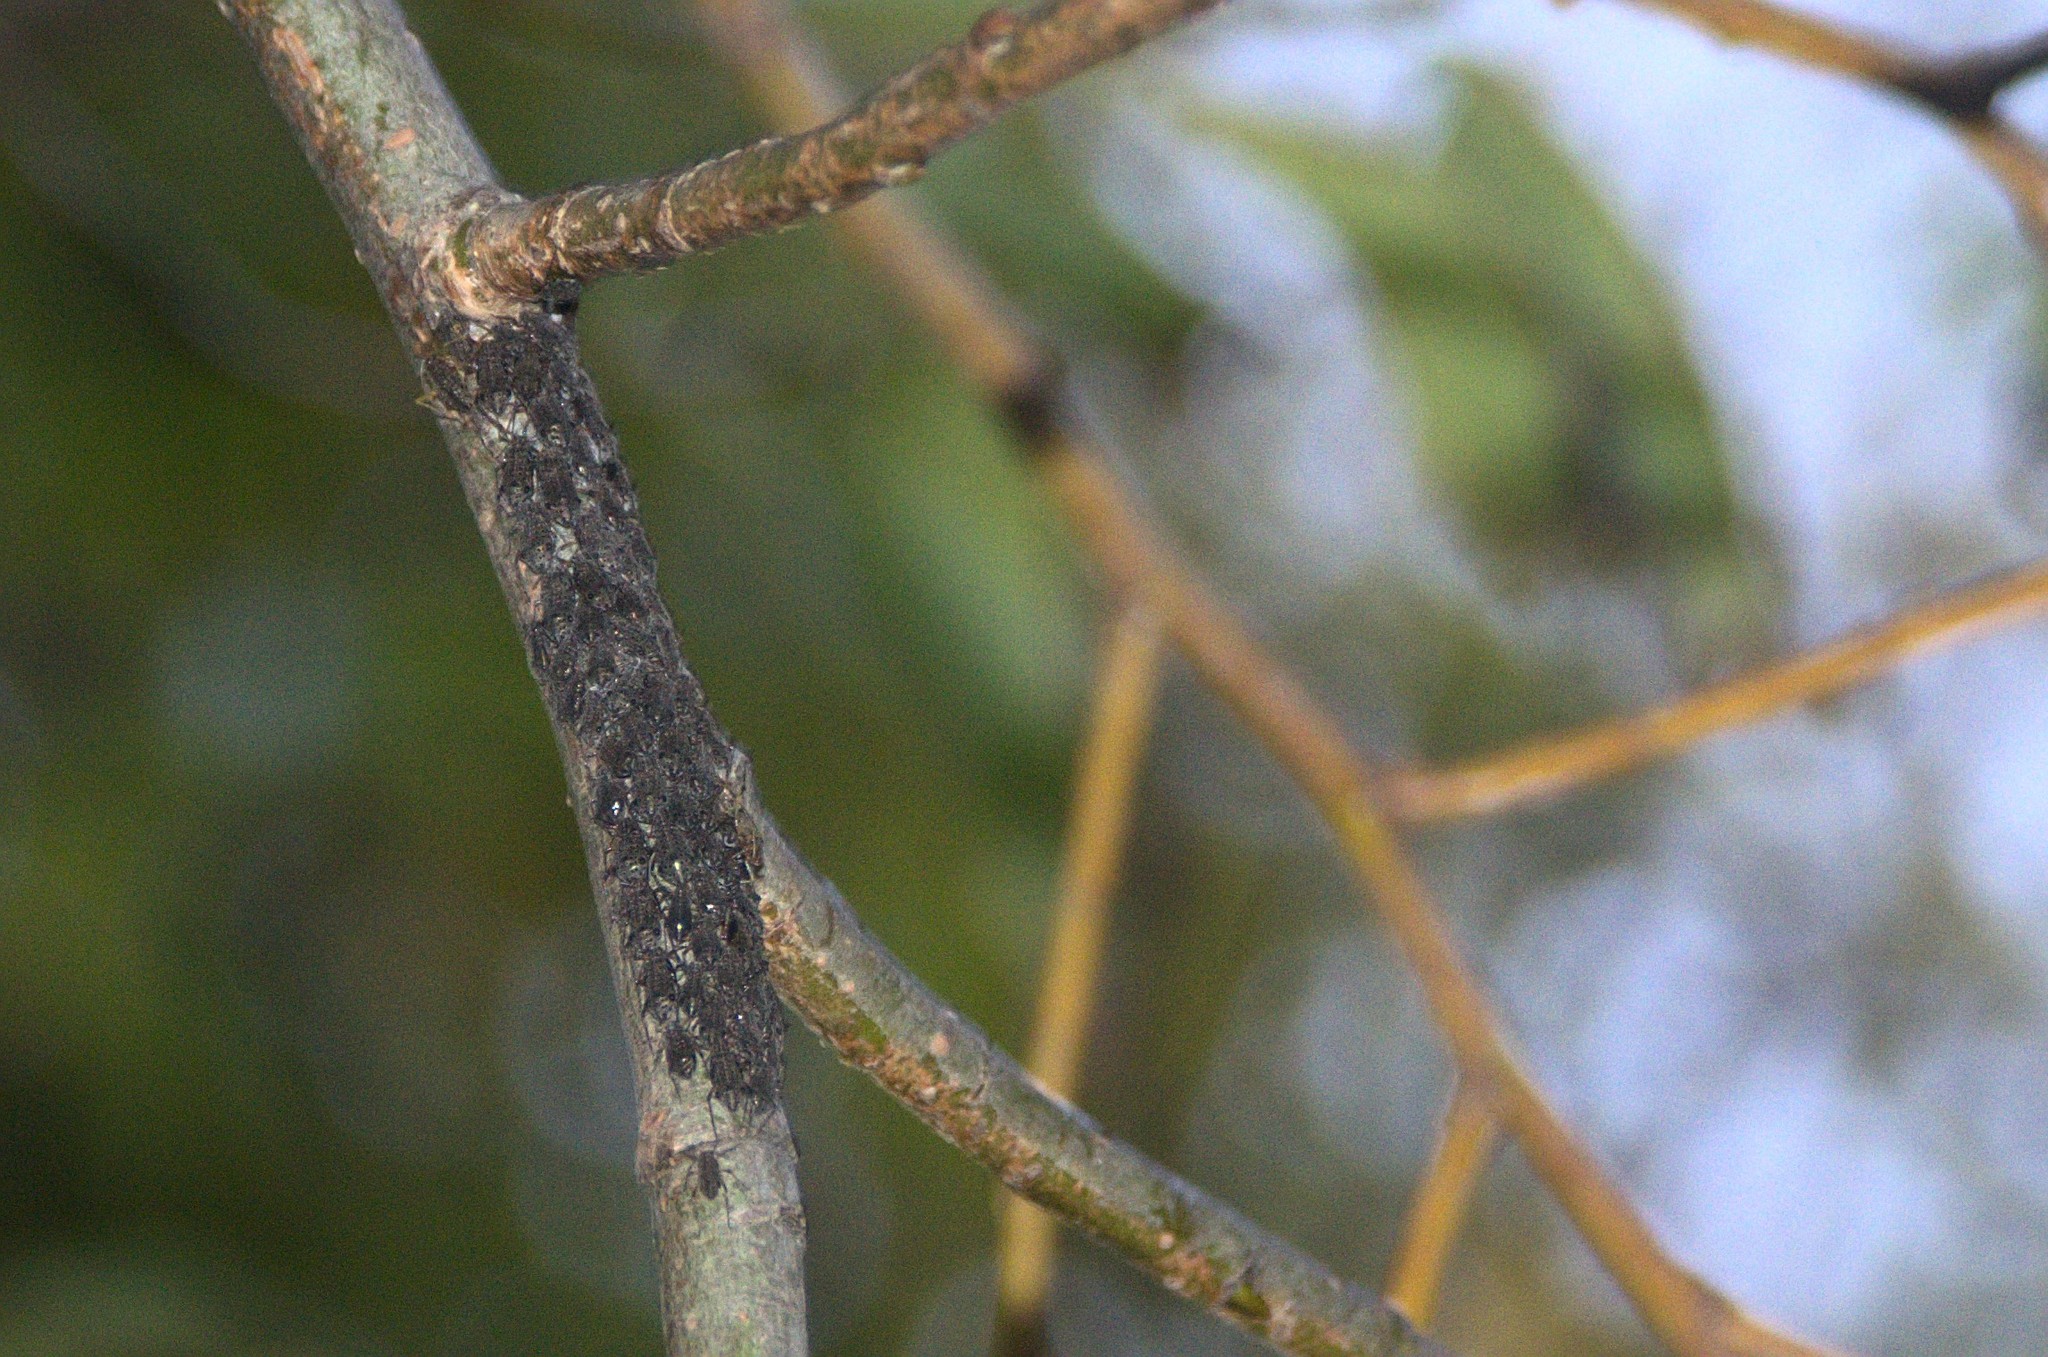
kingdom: Animalia
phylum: Arthropoda
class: Insecta
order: Hemiptera
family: Aphididae
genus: Tuberolachnus
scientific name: Tuberolachnus salignus
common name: Giant willow aphid
